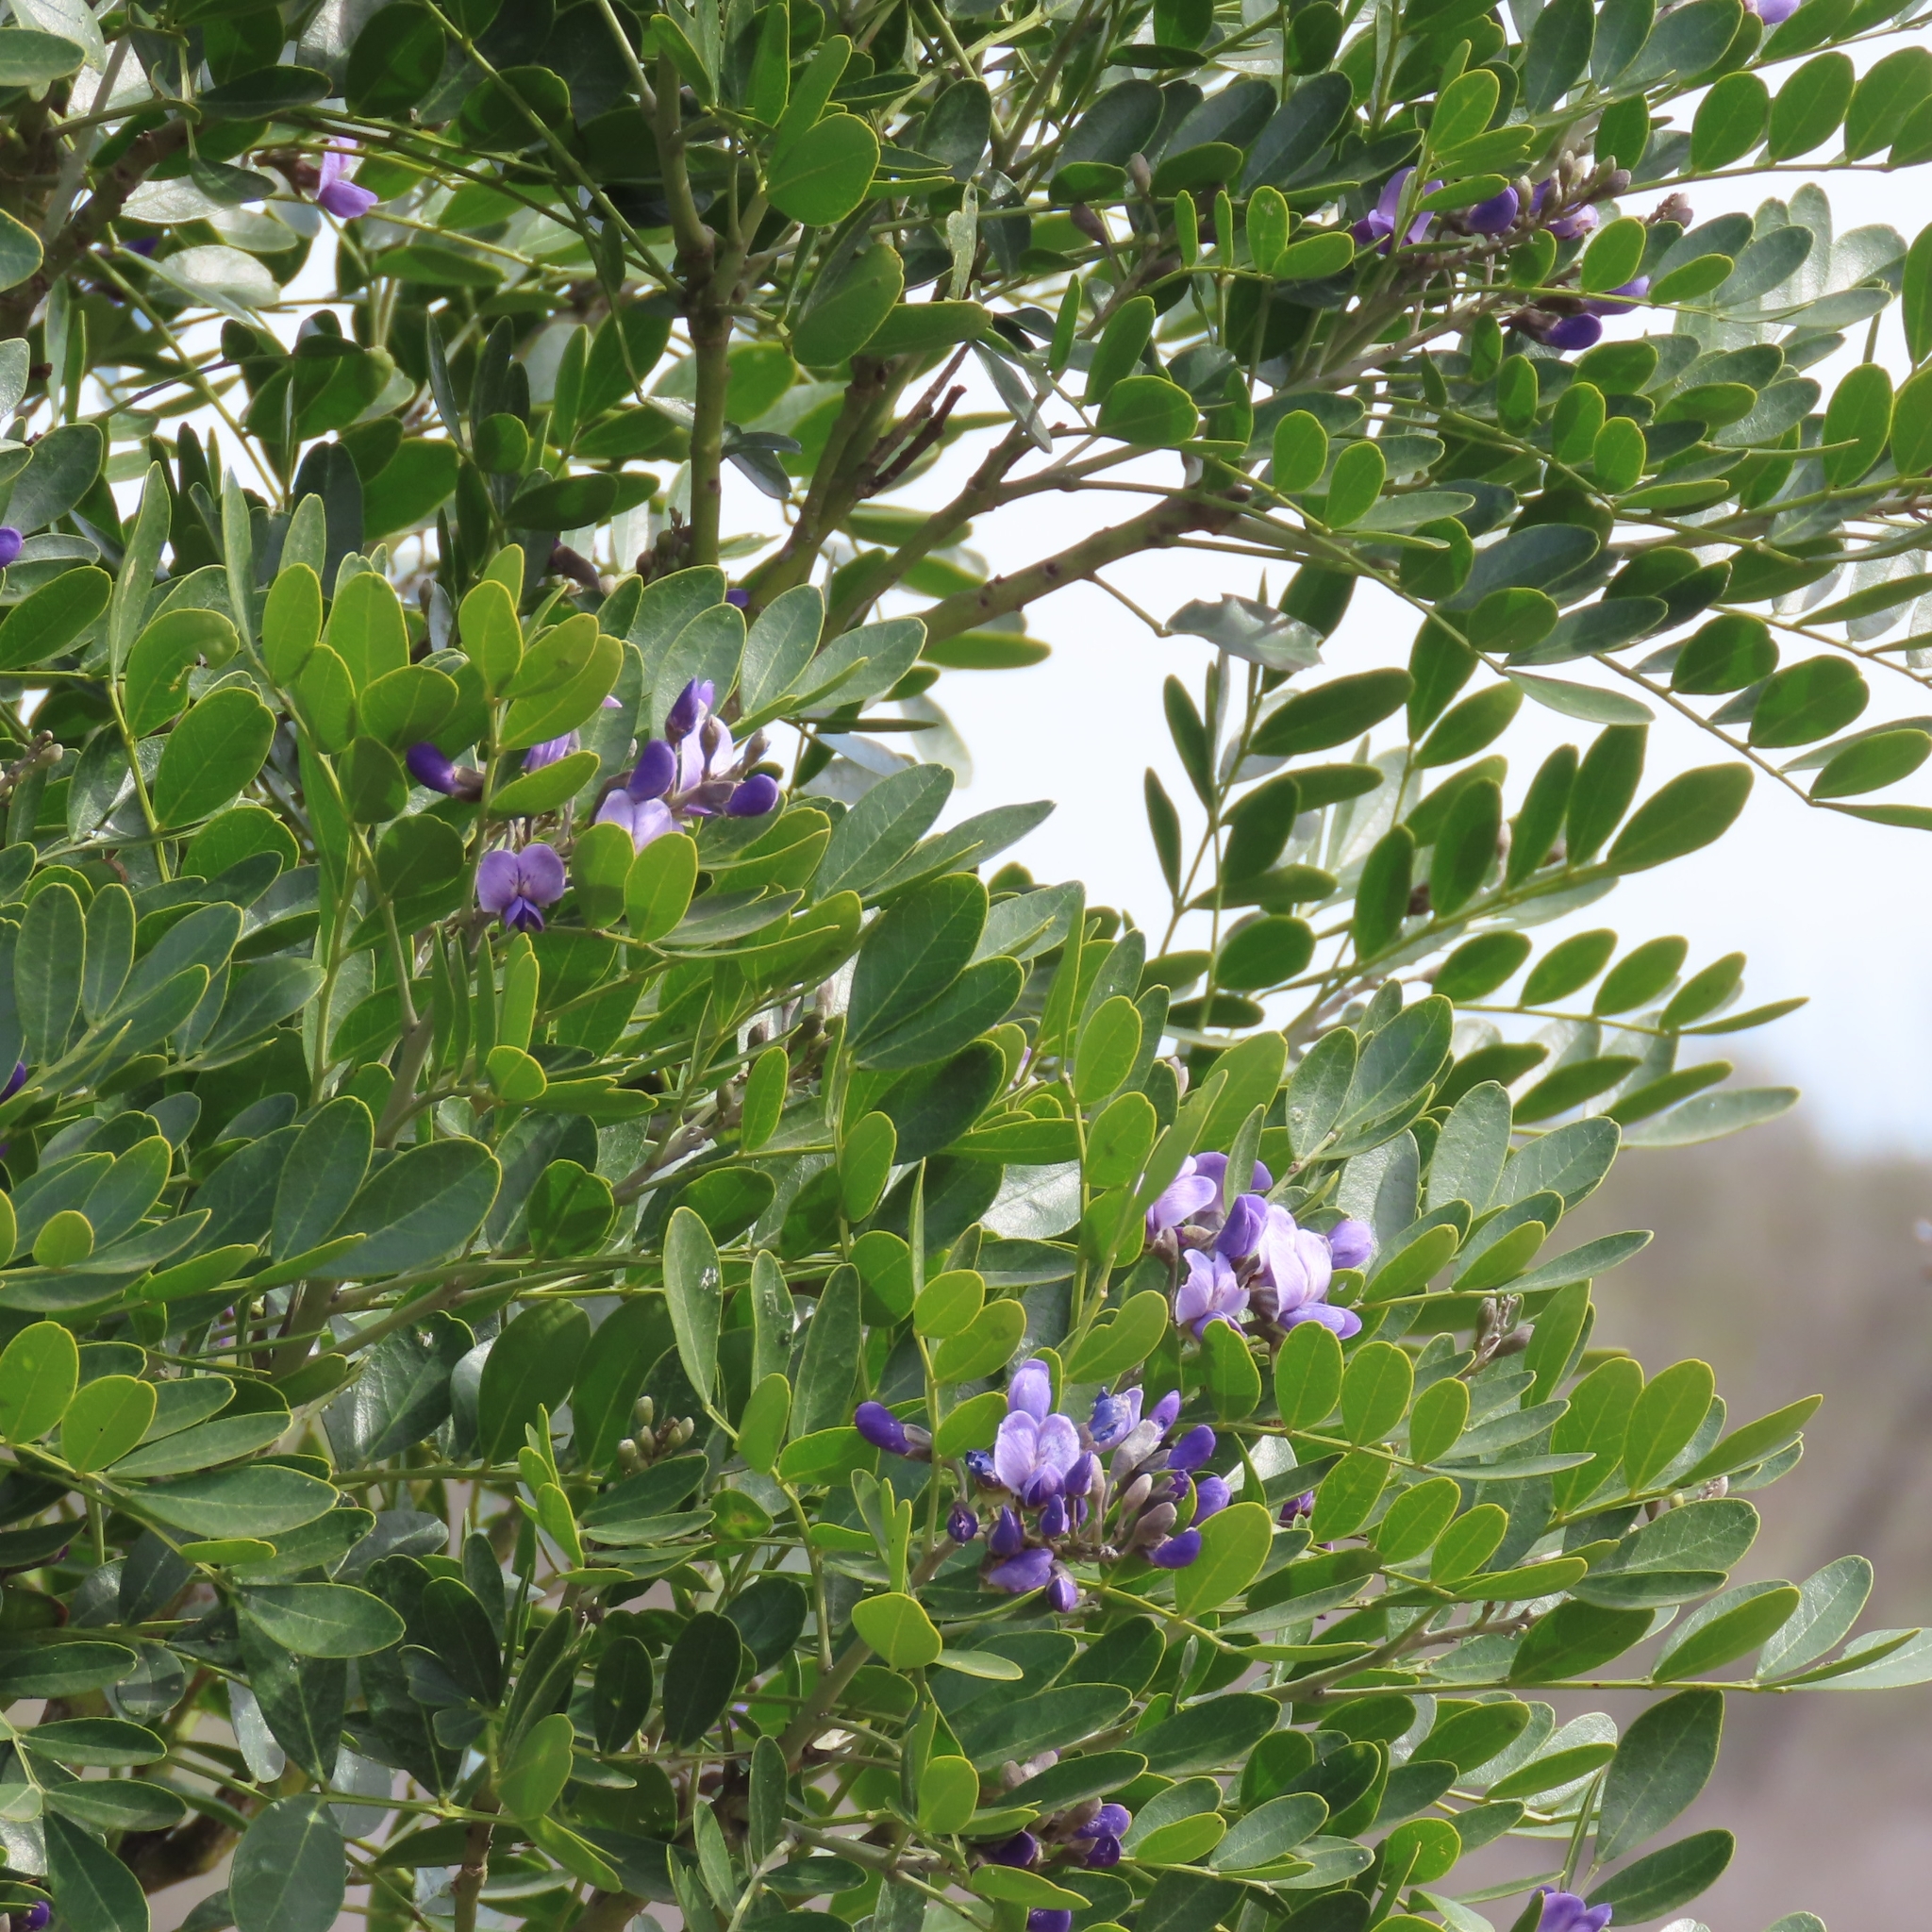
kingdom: Plantae
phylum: Tracheophyta
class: Magnoliopsida
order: Fabales
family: Fabaceae
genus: Dermatophyllum
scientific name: Dermatophyllum secundiflorum
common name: Texas-mountain-laurel
